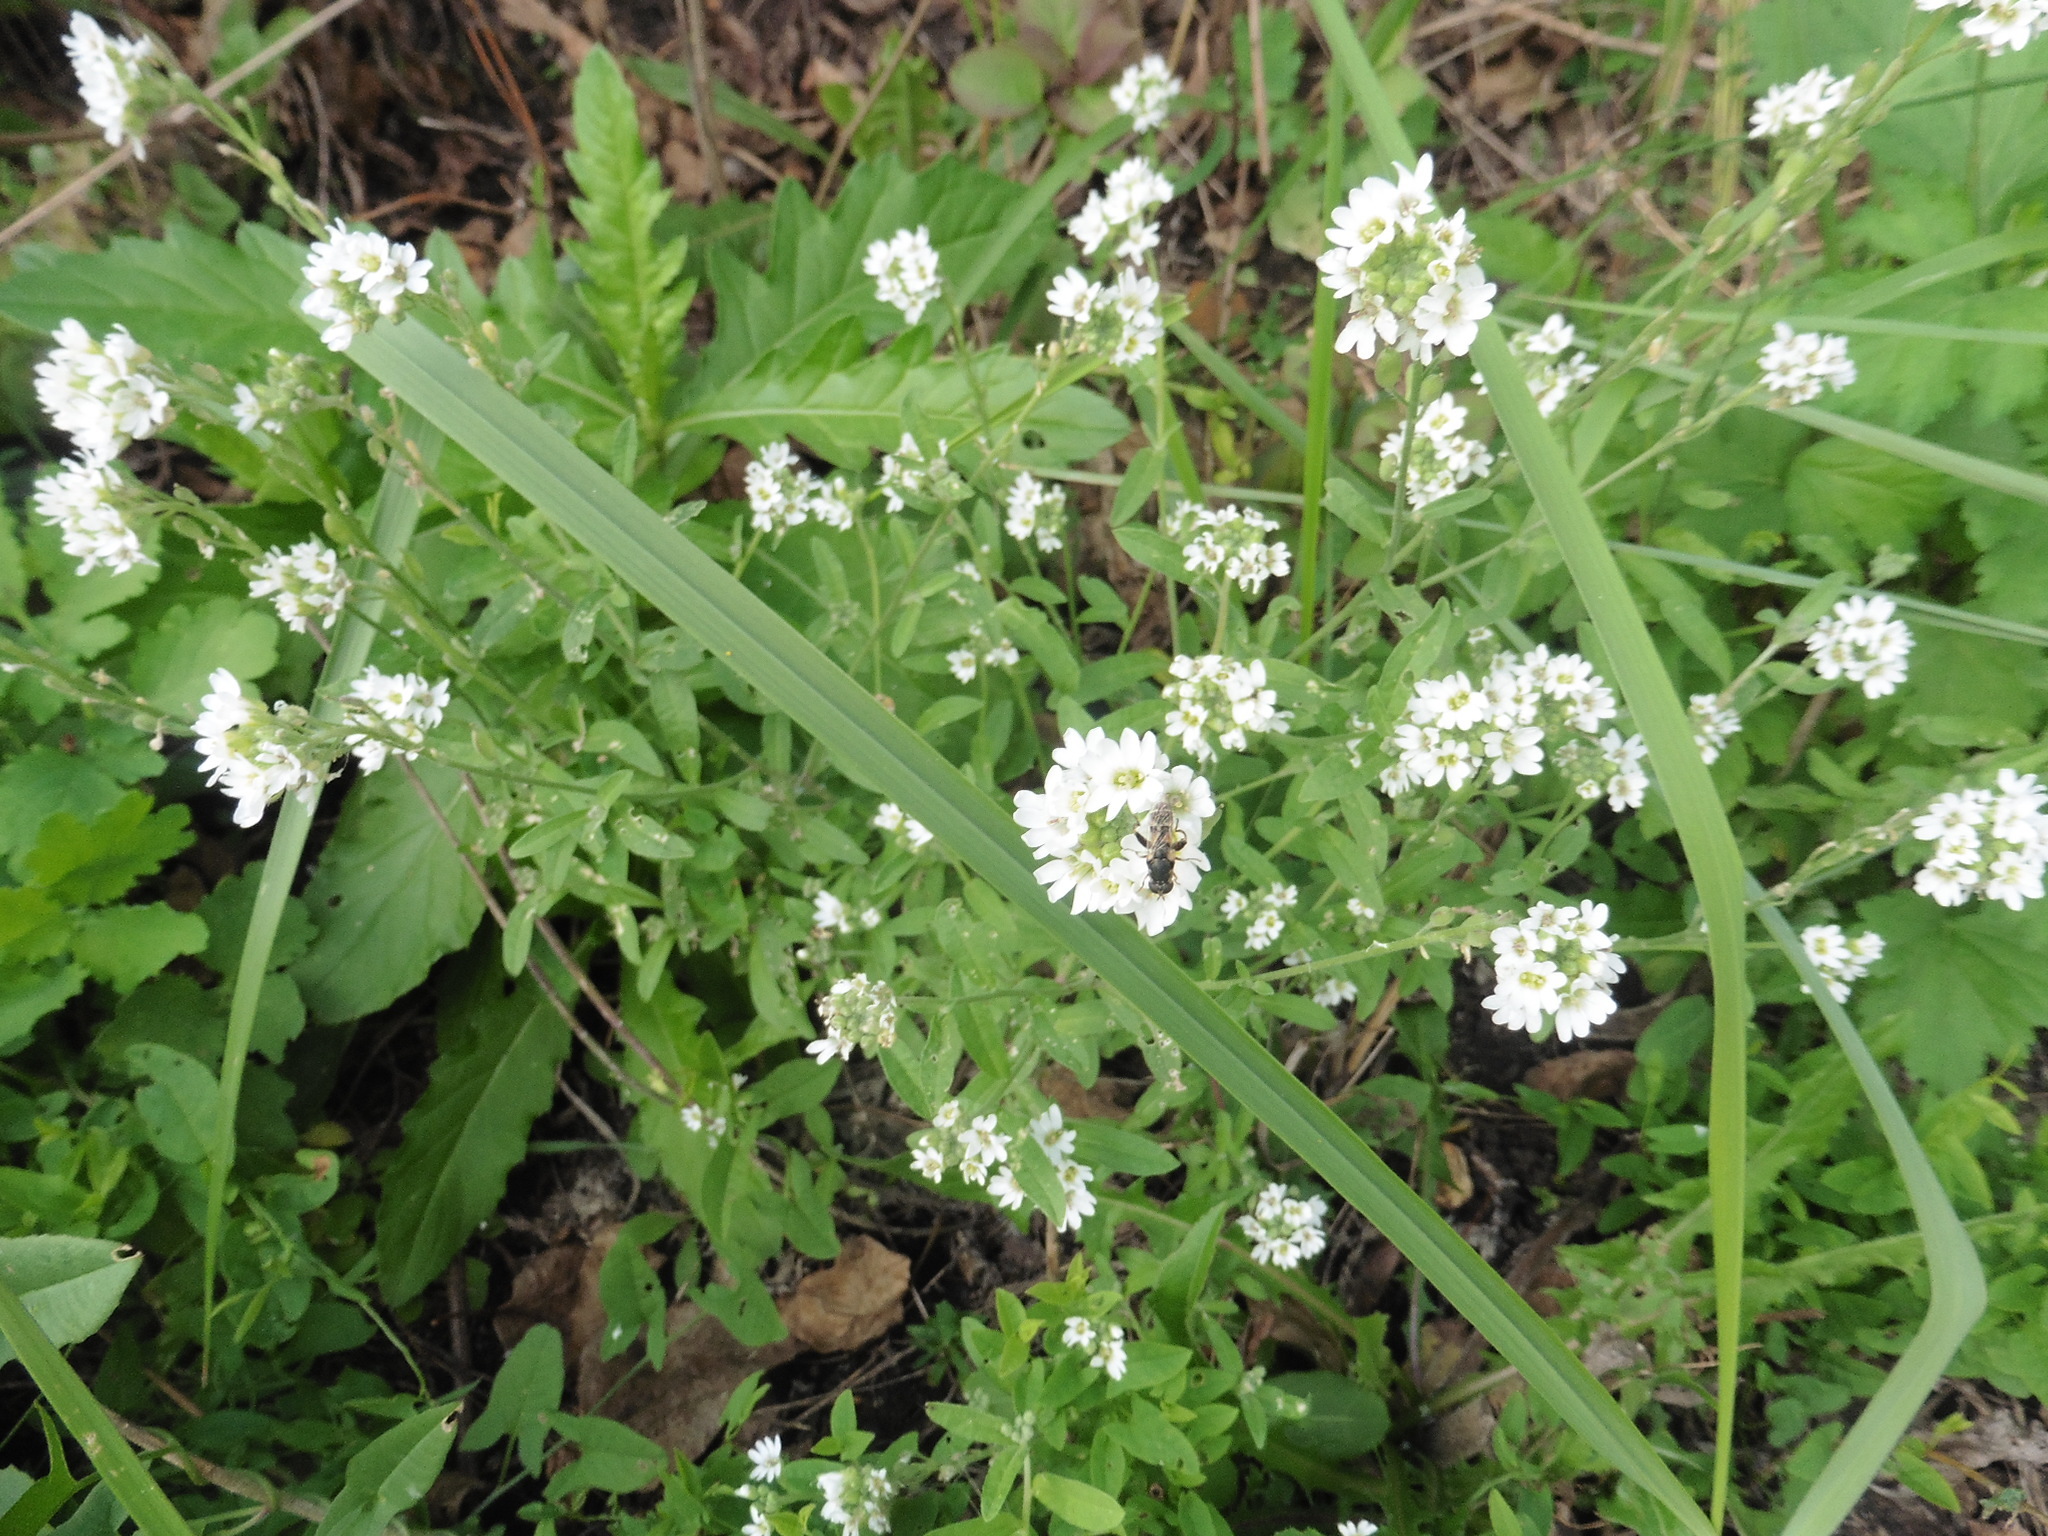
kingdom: Plantae
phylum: Tracheophyta
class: Magnoliopsida
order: Brassicales
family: Brassicaceae
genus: Berteroa
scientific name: Berteroa incana
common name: Hoary alison
